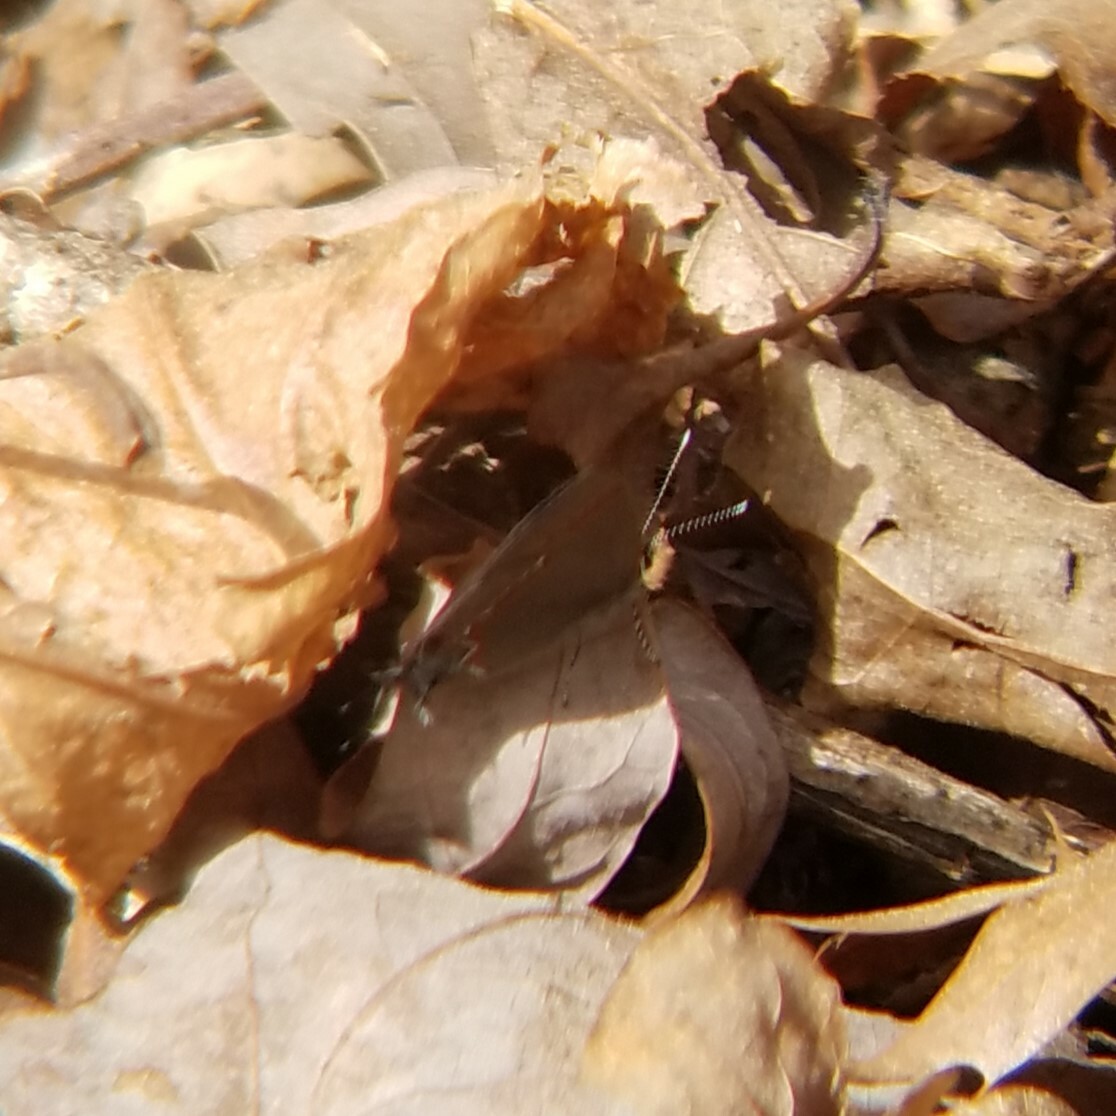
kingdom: Animalia
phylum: Arthropoda
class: Insecta
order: Lepidoptera
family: Lycaenidae
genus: Calycopis
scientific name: Calycopis cecrops
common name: Red-banded hairstreak
